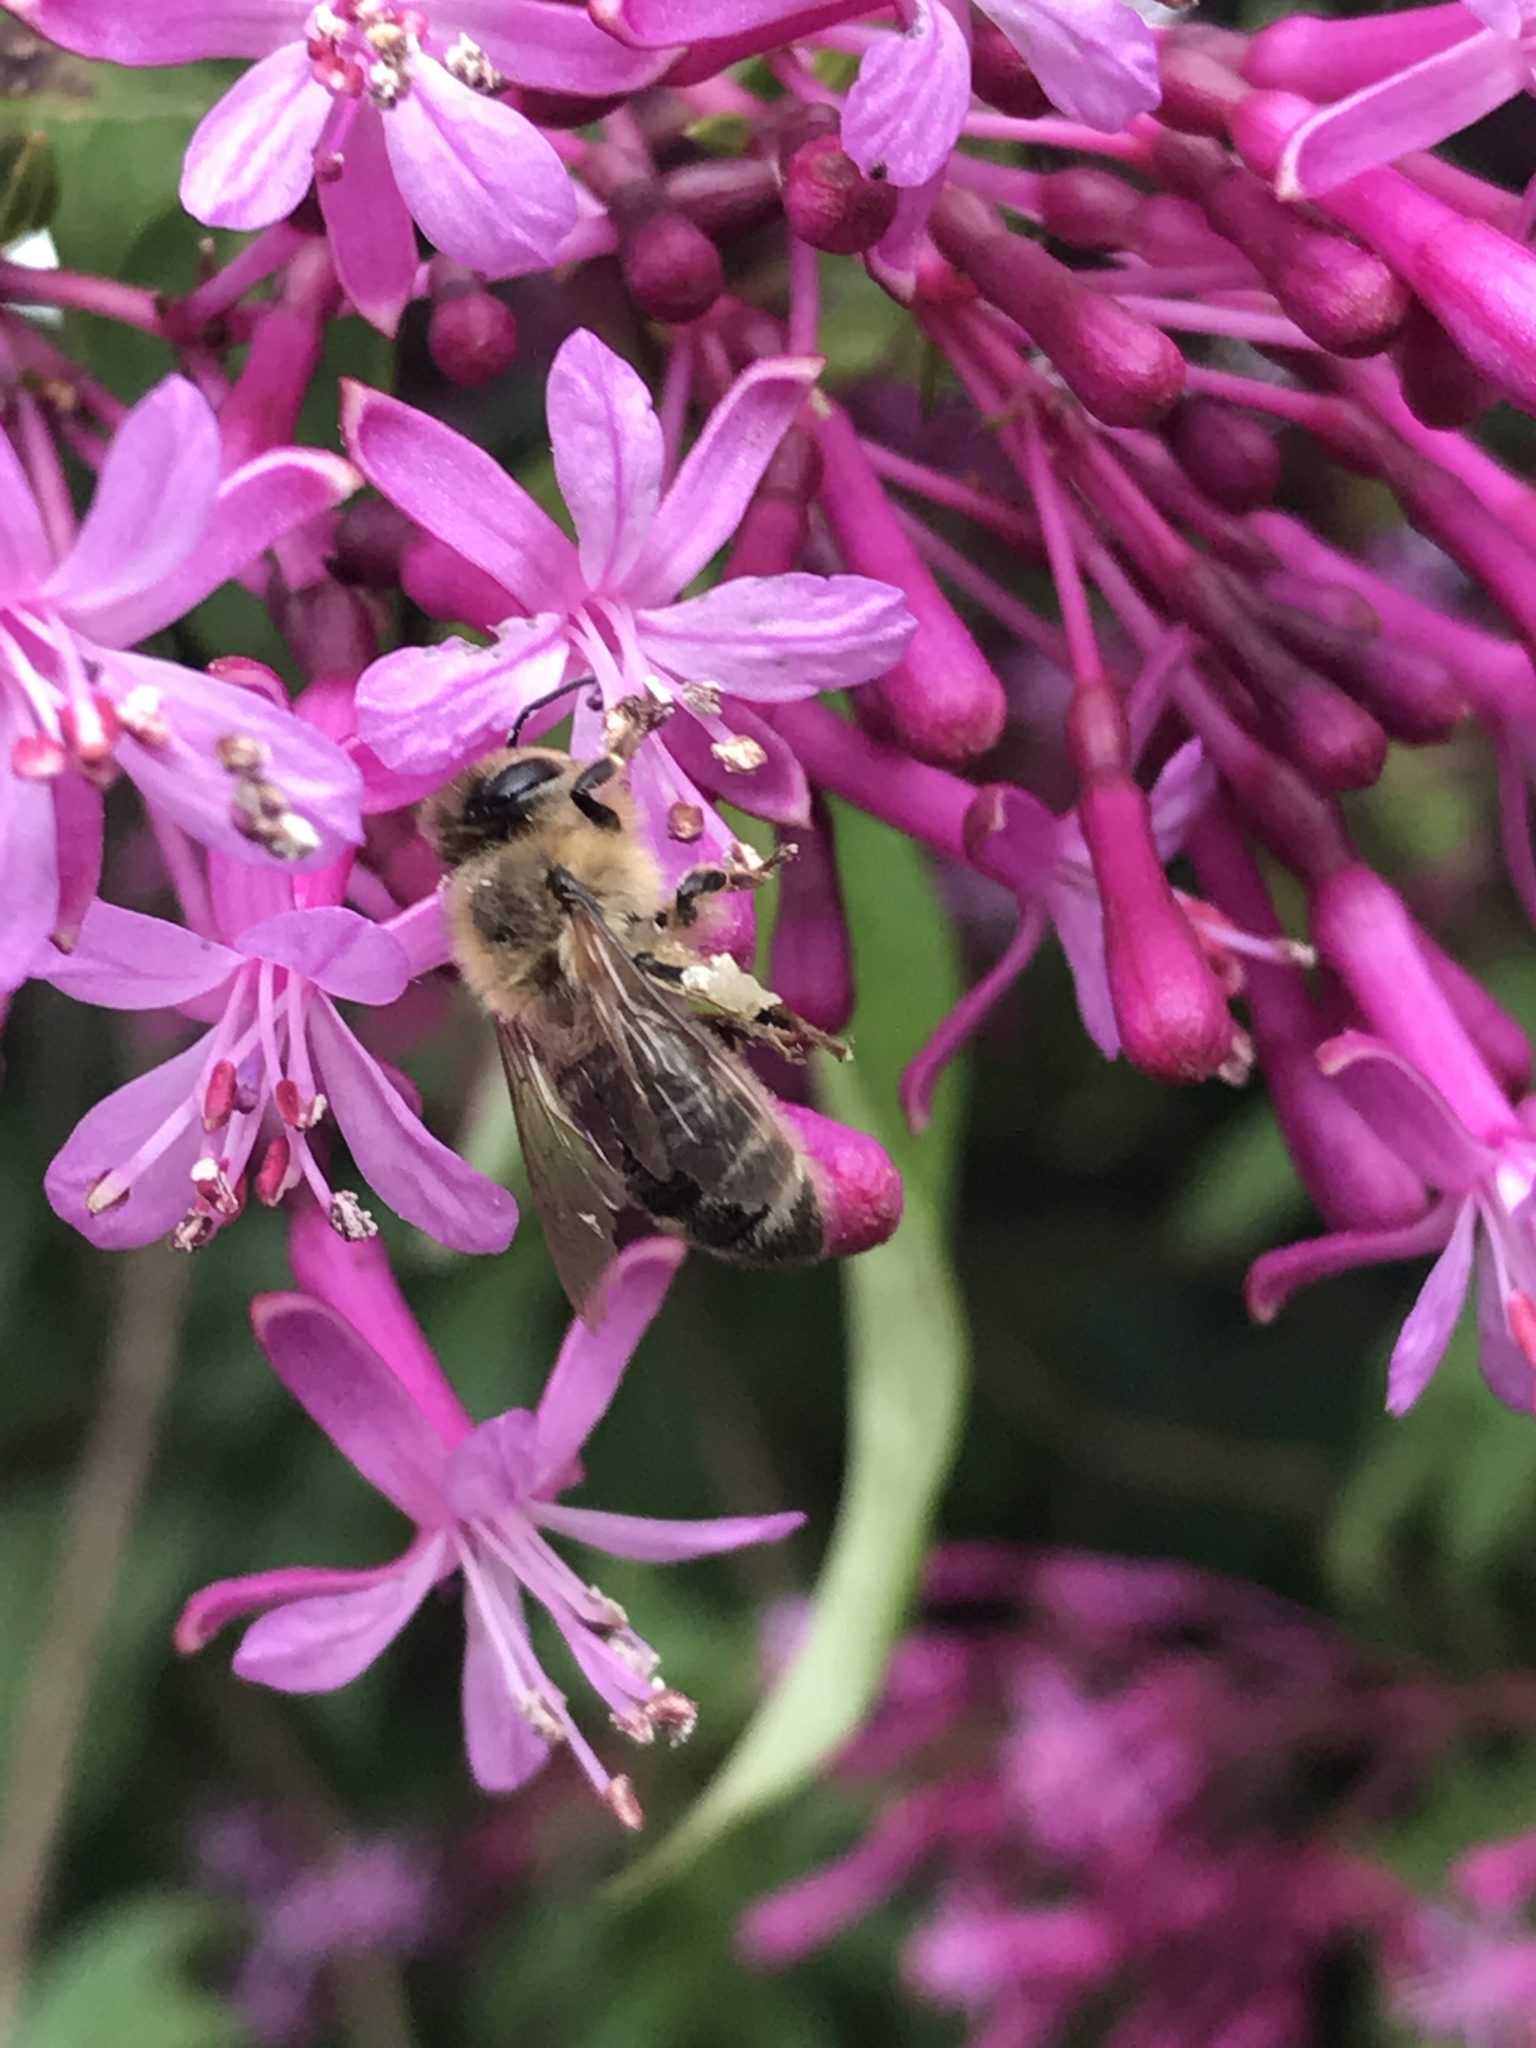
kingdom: Animalia
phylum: Arthropoda
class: Insecta
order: Hymenoptera
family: Apidae
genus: Apis
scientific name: Apis mellifera
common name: Honey bee
